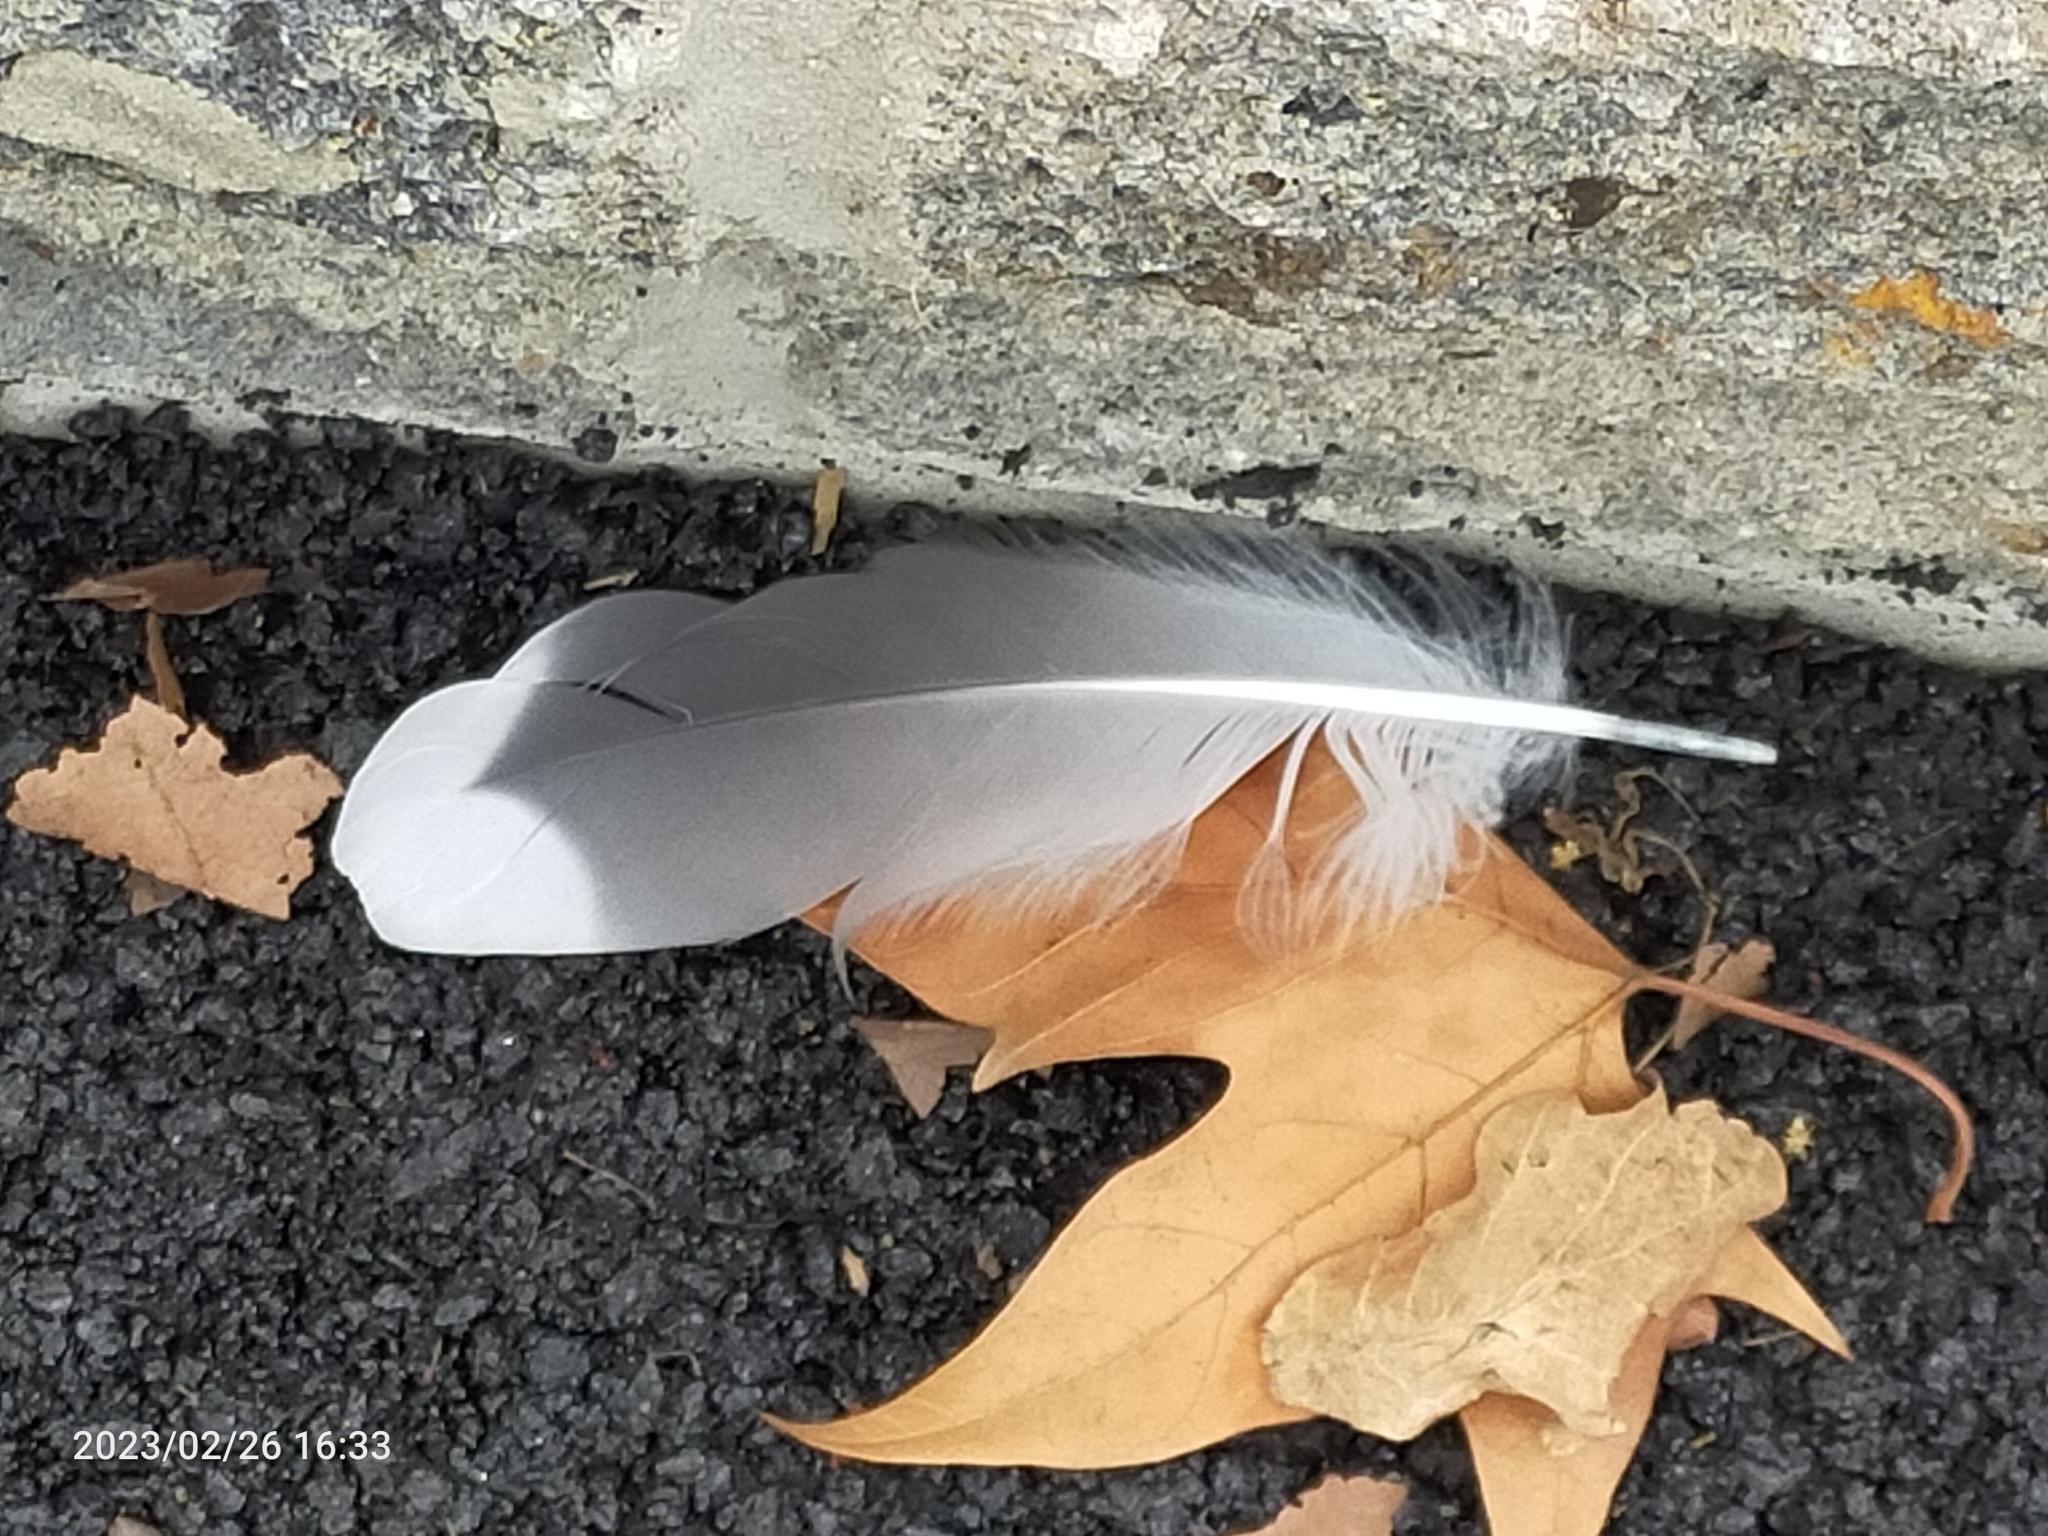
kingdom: Animalia
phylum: Chordata
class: Aves
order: Charadriiformes
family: Laridae
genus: Larus
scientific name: Larus
